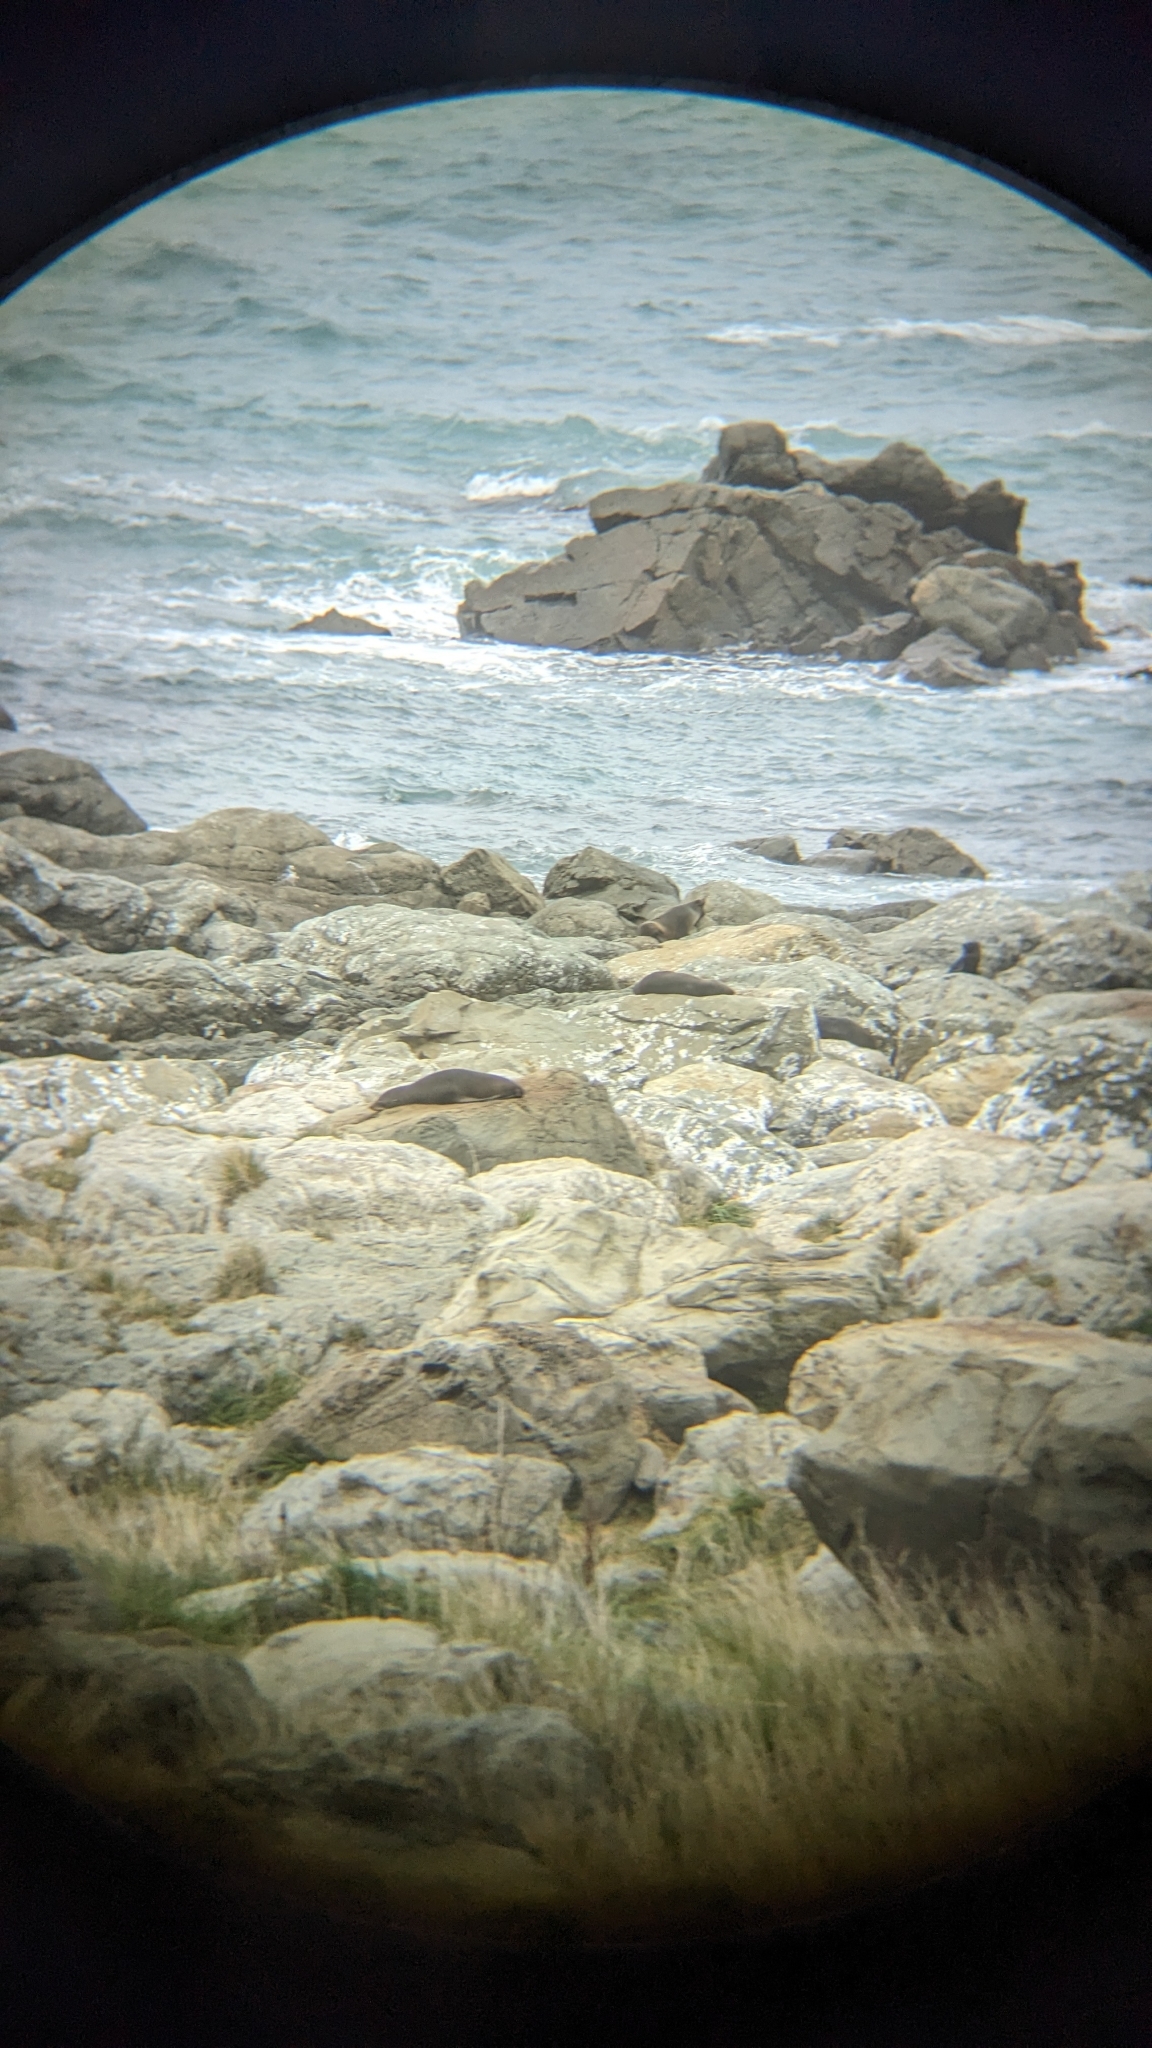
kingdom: Animalia
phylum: Chordata
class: Mammalia
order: Carnivora
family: Otariidae
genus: Arctocephalus
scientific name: Arctocephalus forsteri
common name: New zealand fur seal
